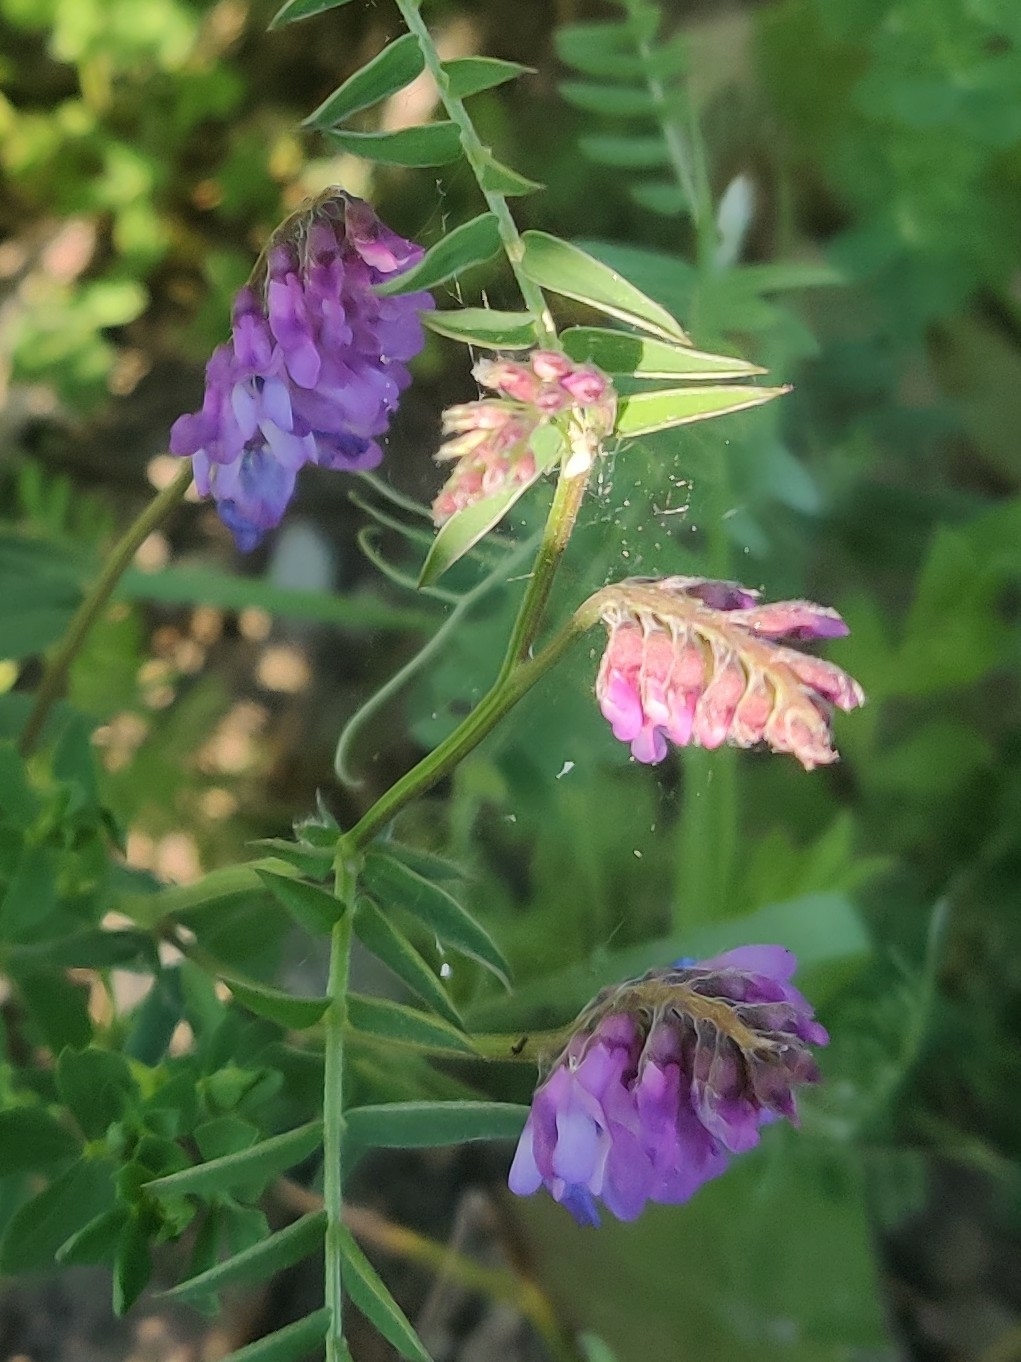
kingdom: Plantae
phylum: Tracheophyta
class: Magnoliopsida
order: Fabales
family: Fabaceae
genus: Vicia
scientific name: Vicia cracca
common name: Bird vetch
